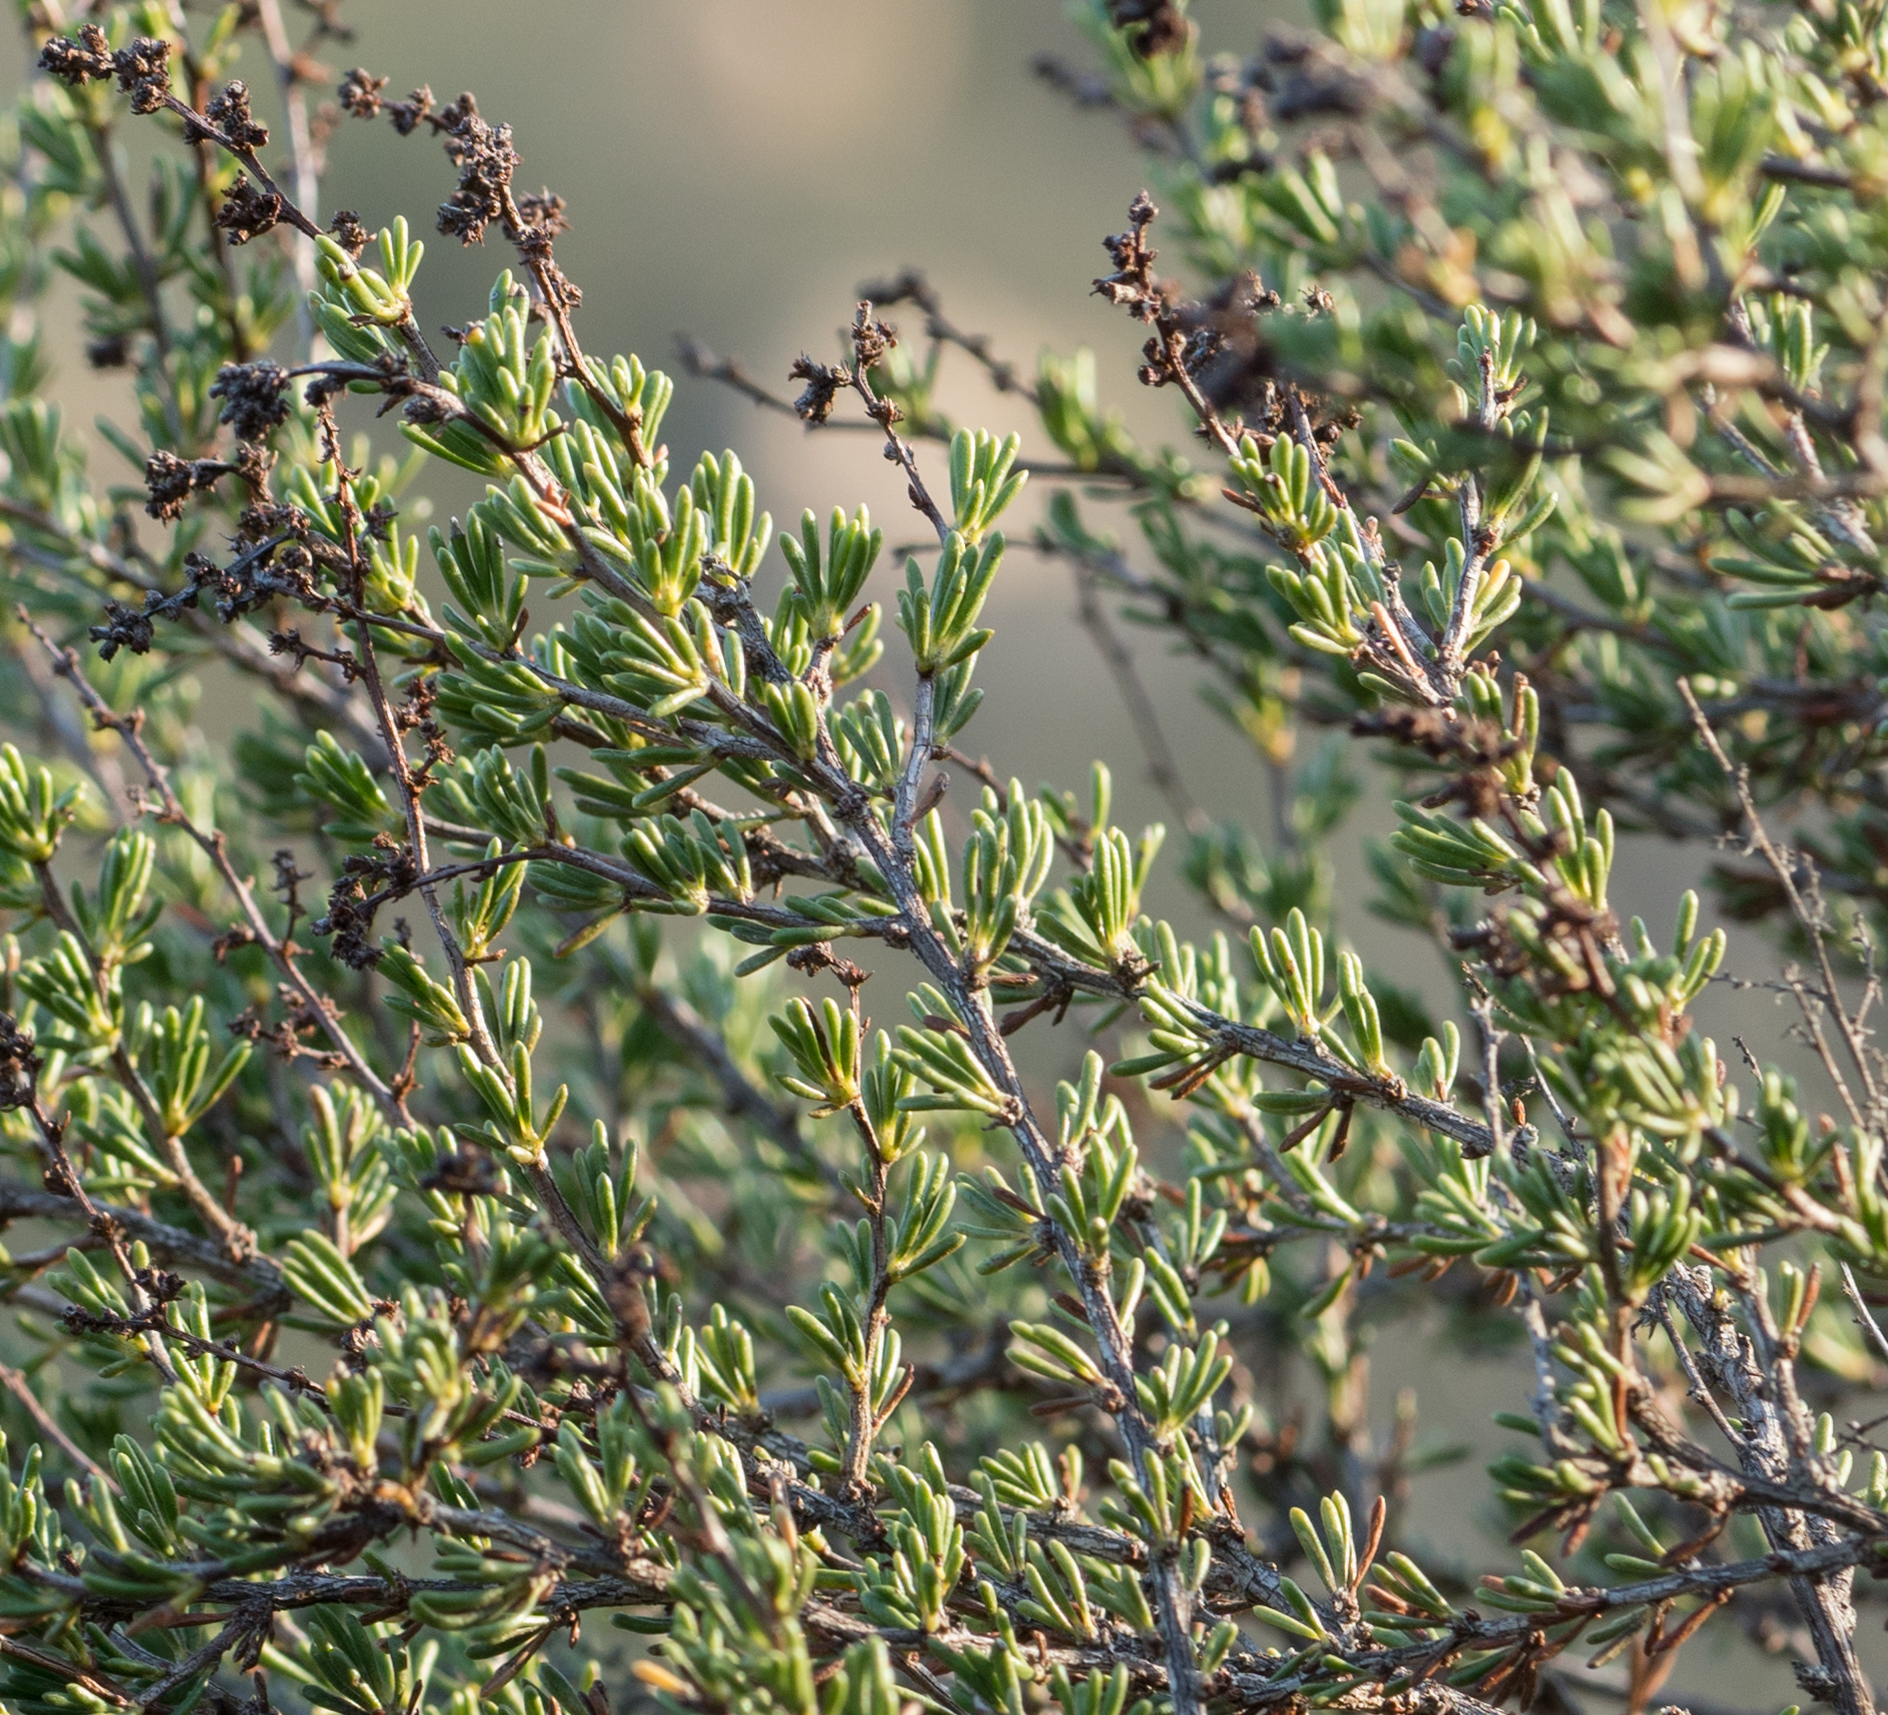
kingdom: Plantae
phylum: Tracheophyta
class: Magnoliopsida
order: Rosales
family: Rosaceae
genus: Adenostoma
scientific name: Adenostoma fasciculatum
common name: Chamise
